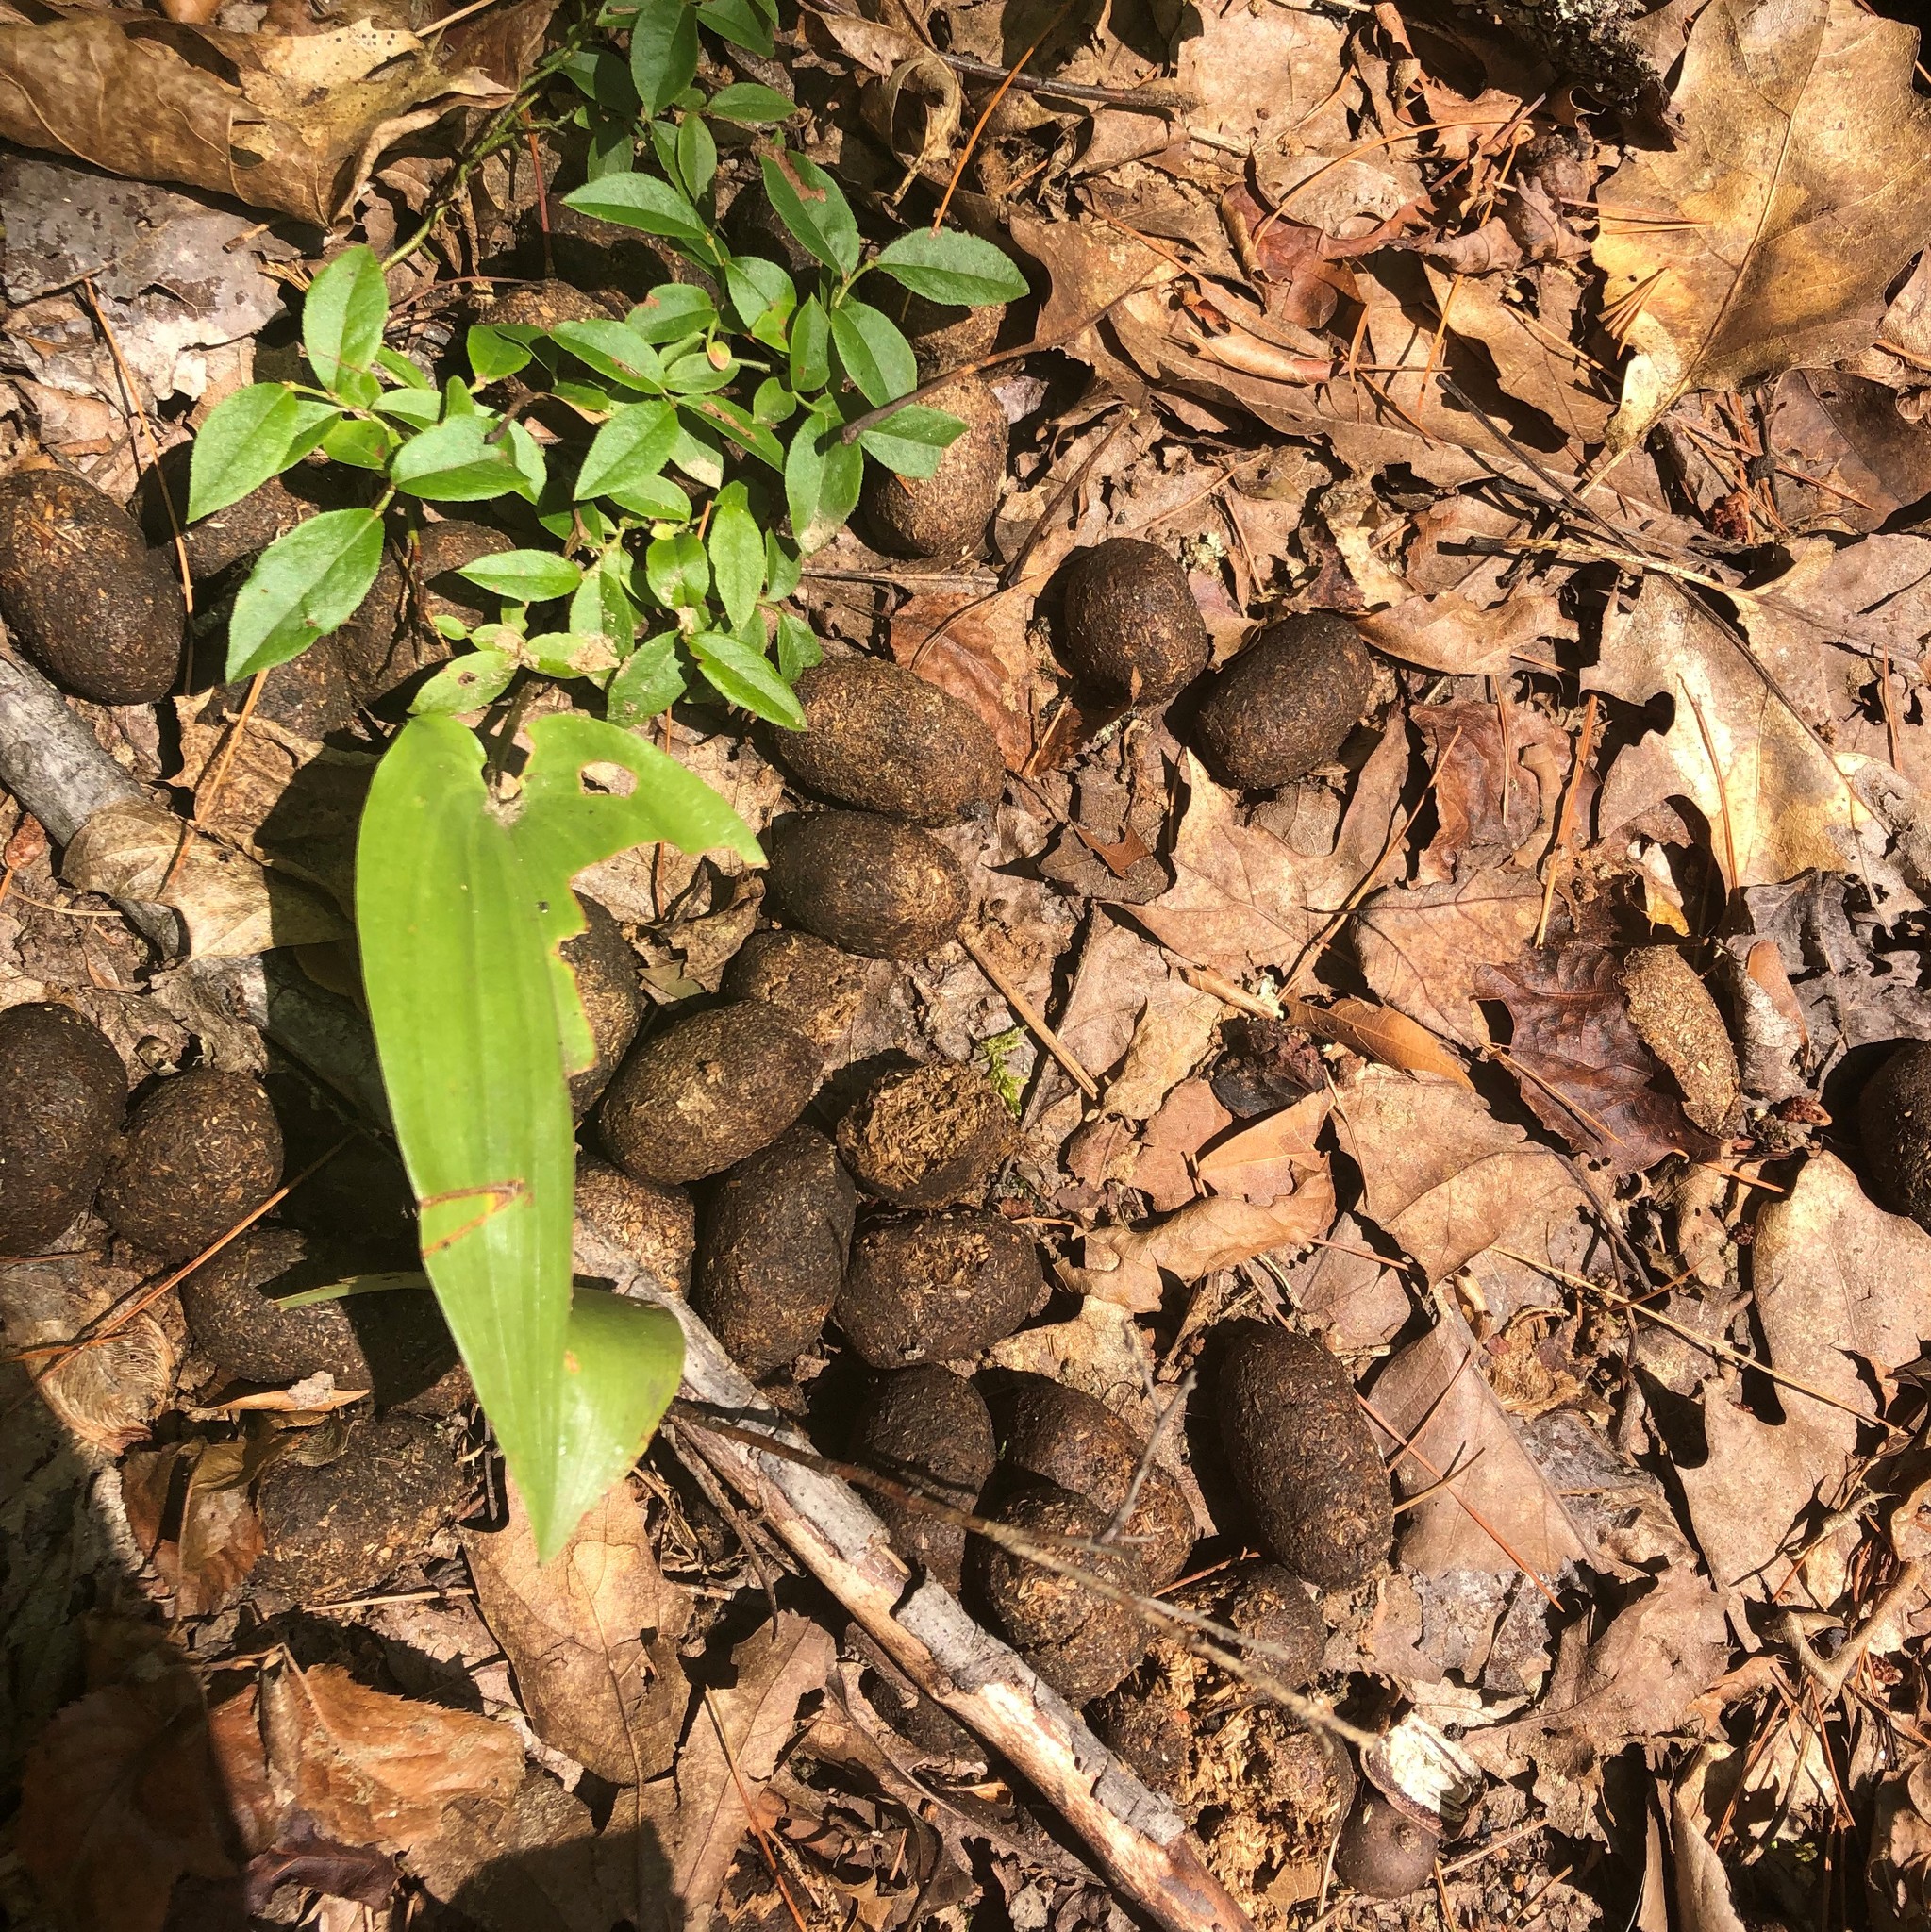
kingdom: Animalia
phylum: Chordata
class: Mammalia
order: Artiodactyla
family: Cervidae
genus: Alces
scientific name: Alces alces
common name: Moose
